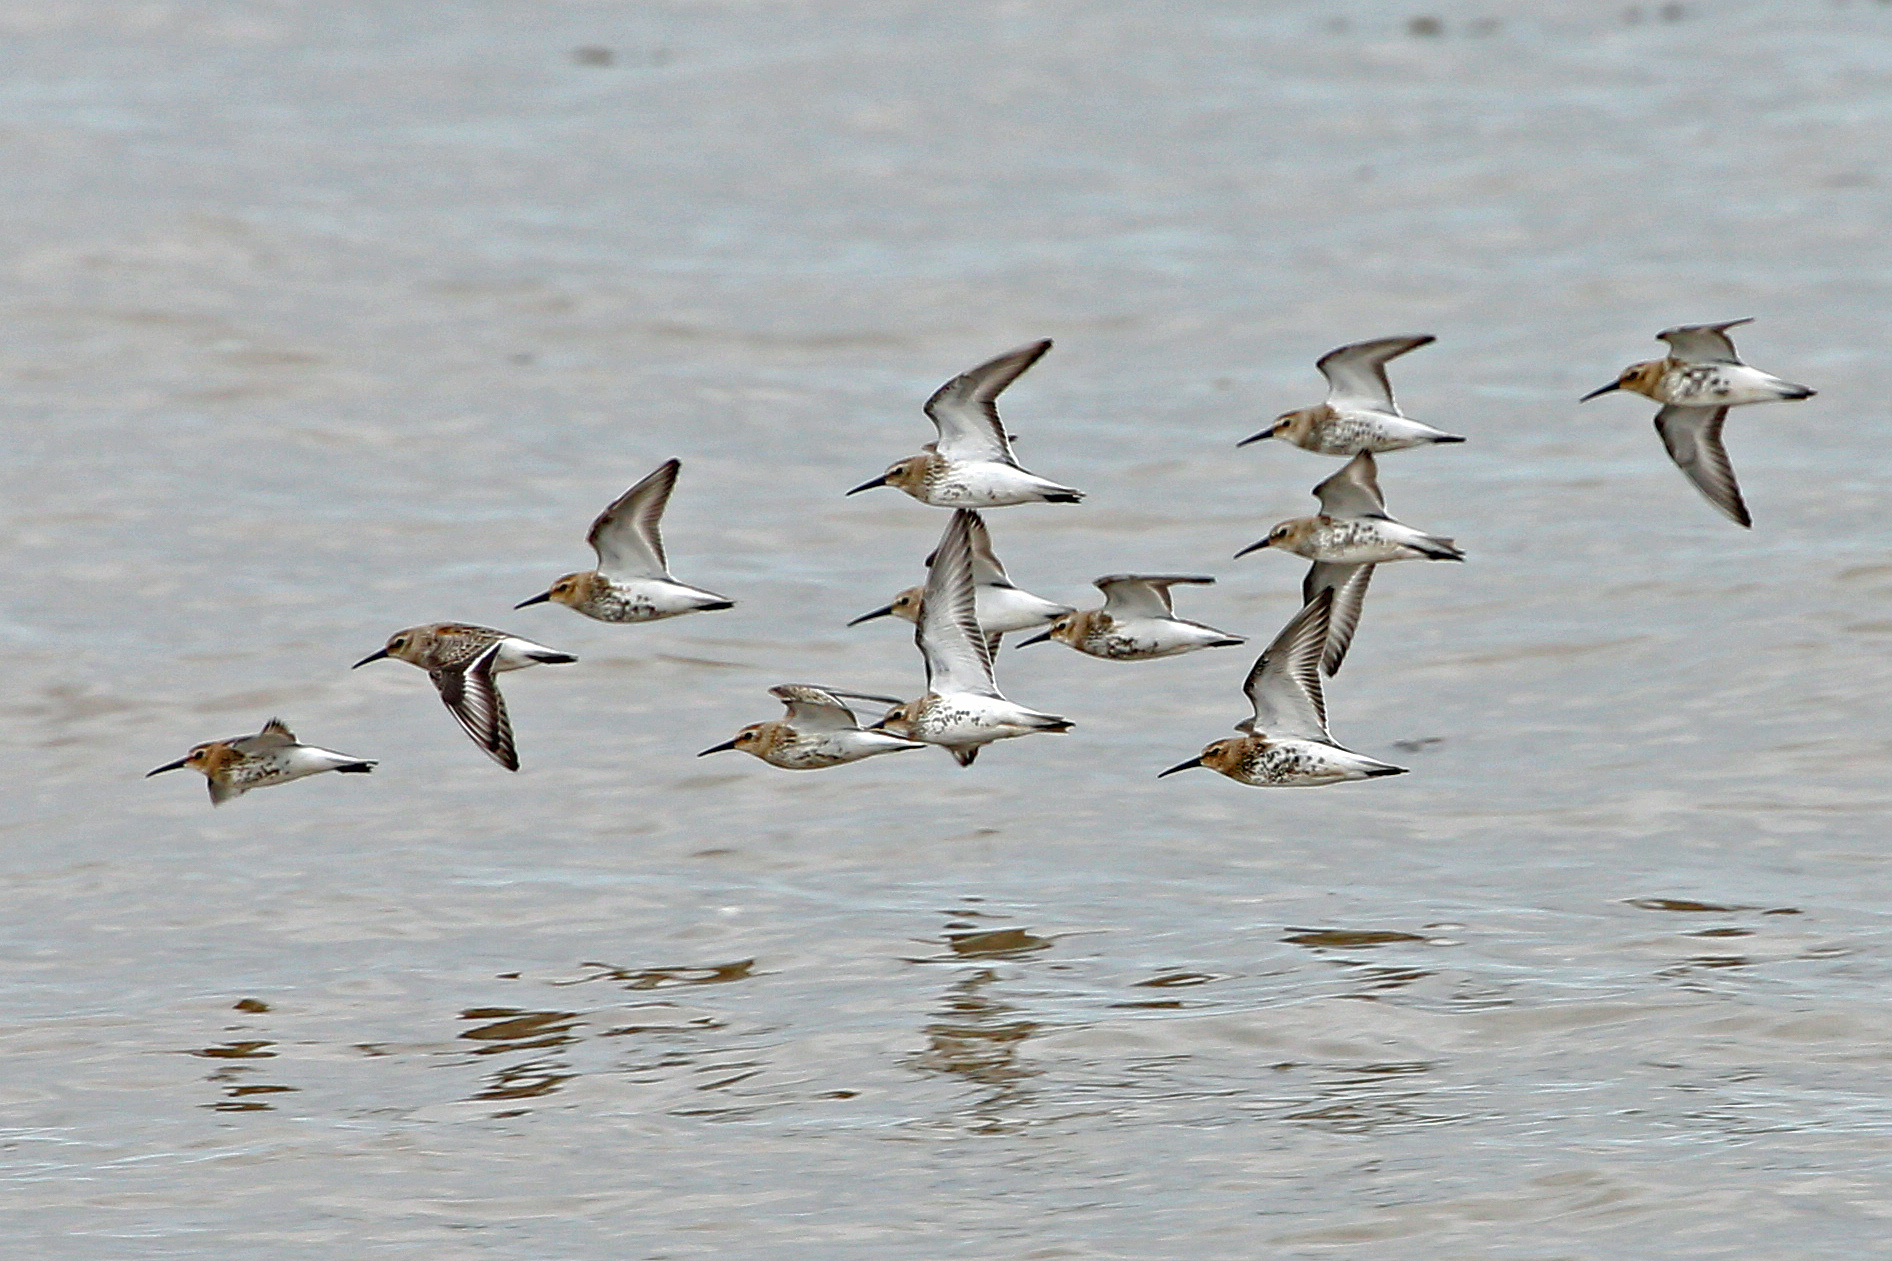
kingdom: Animalia
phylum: Chordata
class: Aves
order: Charadriiformes
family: Scolopacidae
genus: Calidris
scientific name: Calidris alpina
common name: Dunlin
